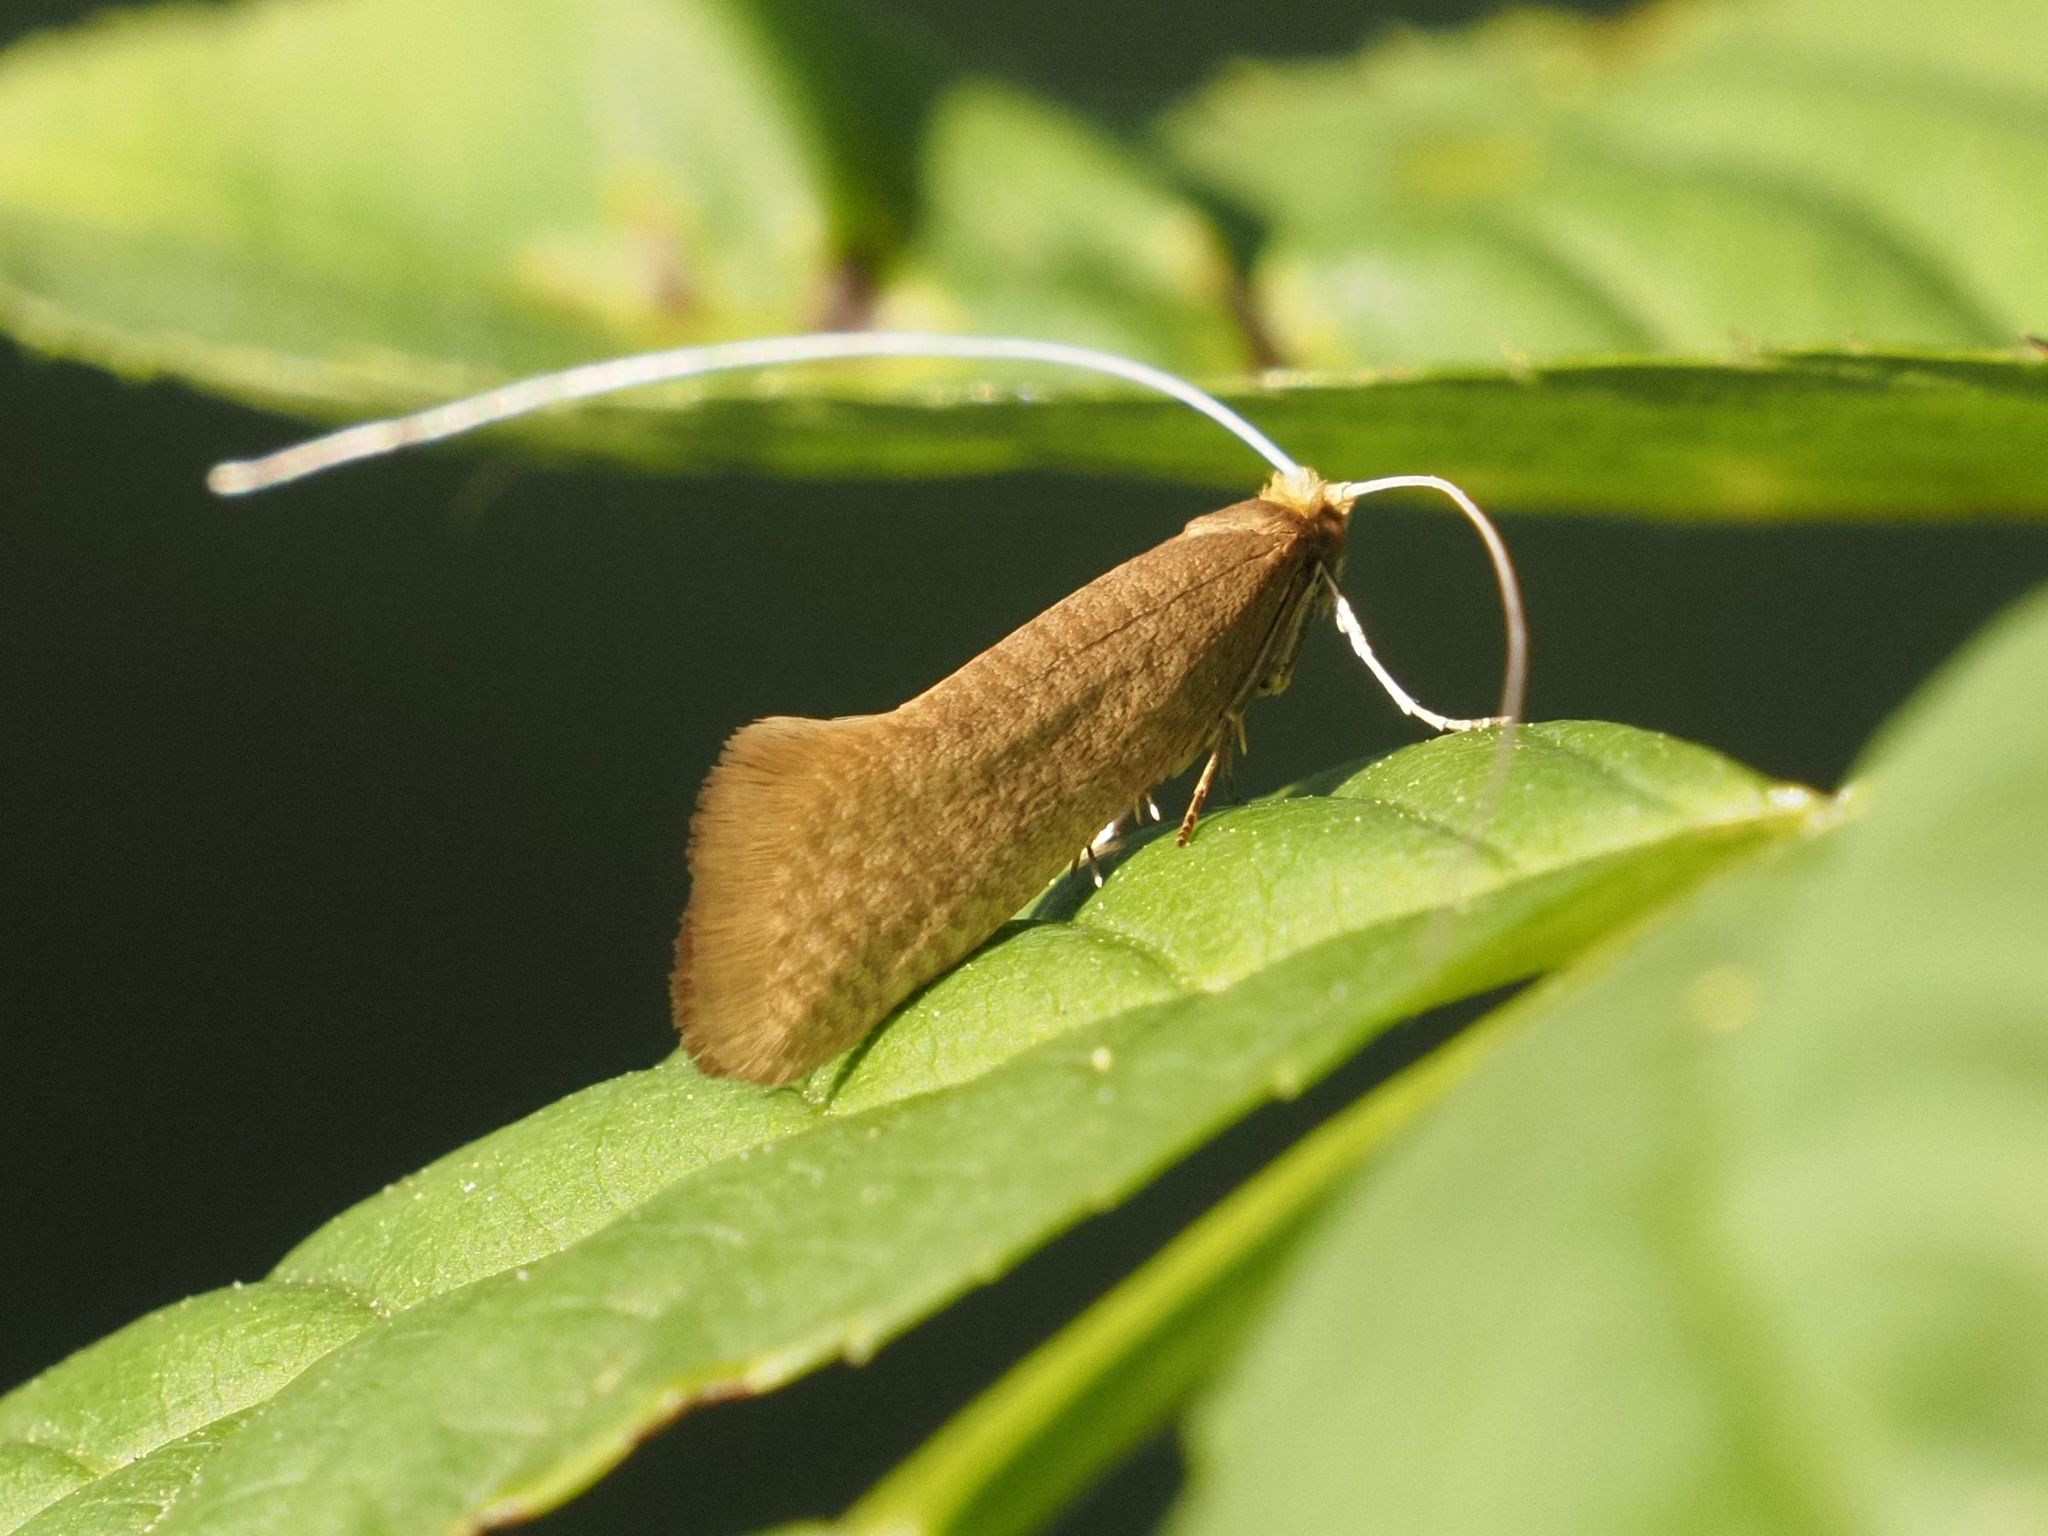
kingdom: Animalia
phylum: Arthropoda
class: Insecta
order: Lepidoptera
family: Adelidae
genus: Nematopogon
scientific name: Nematopogon swammerdamella
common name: Large long-horn
